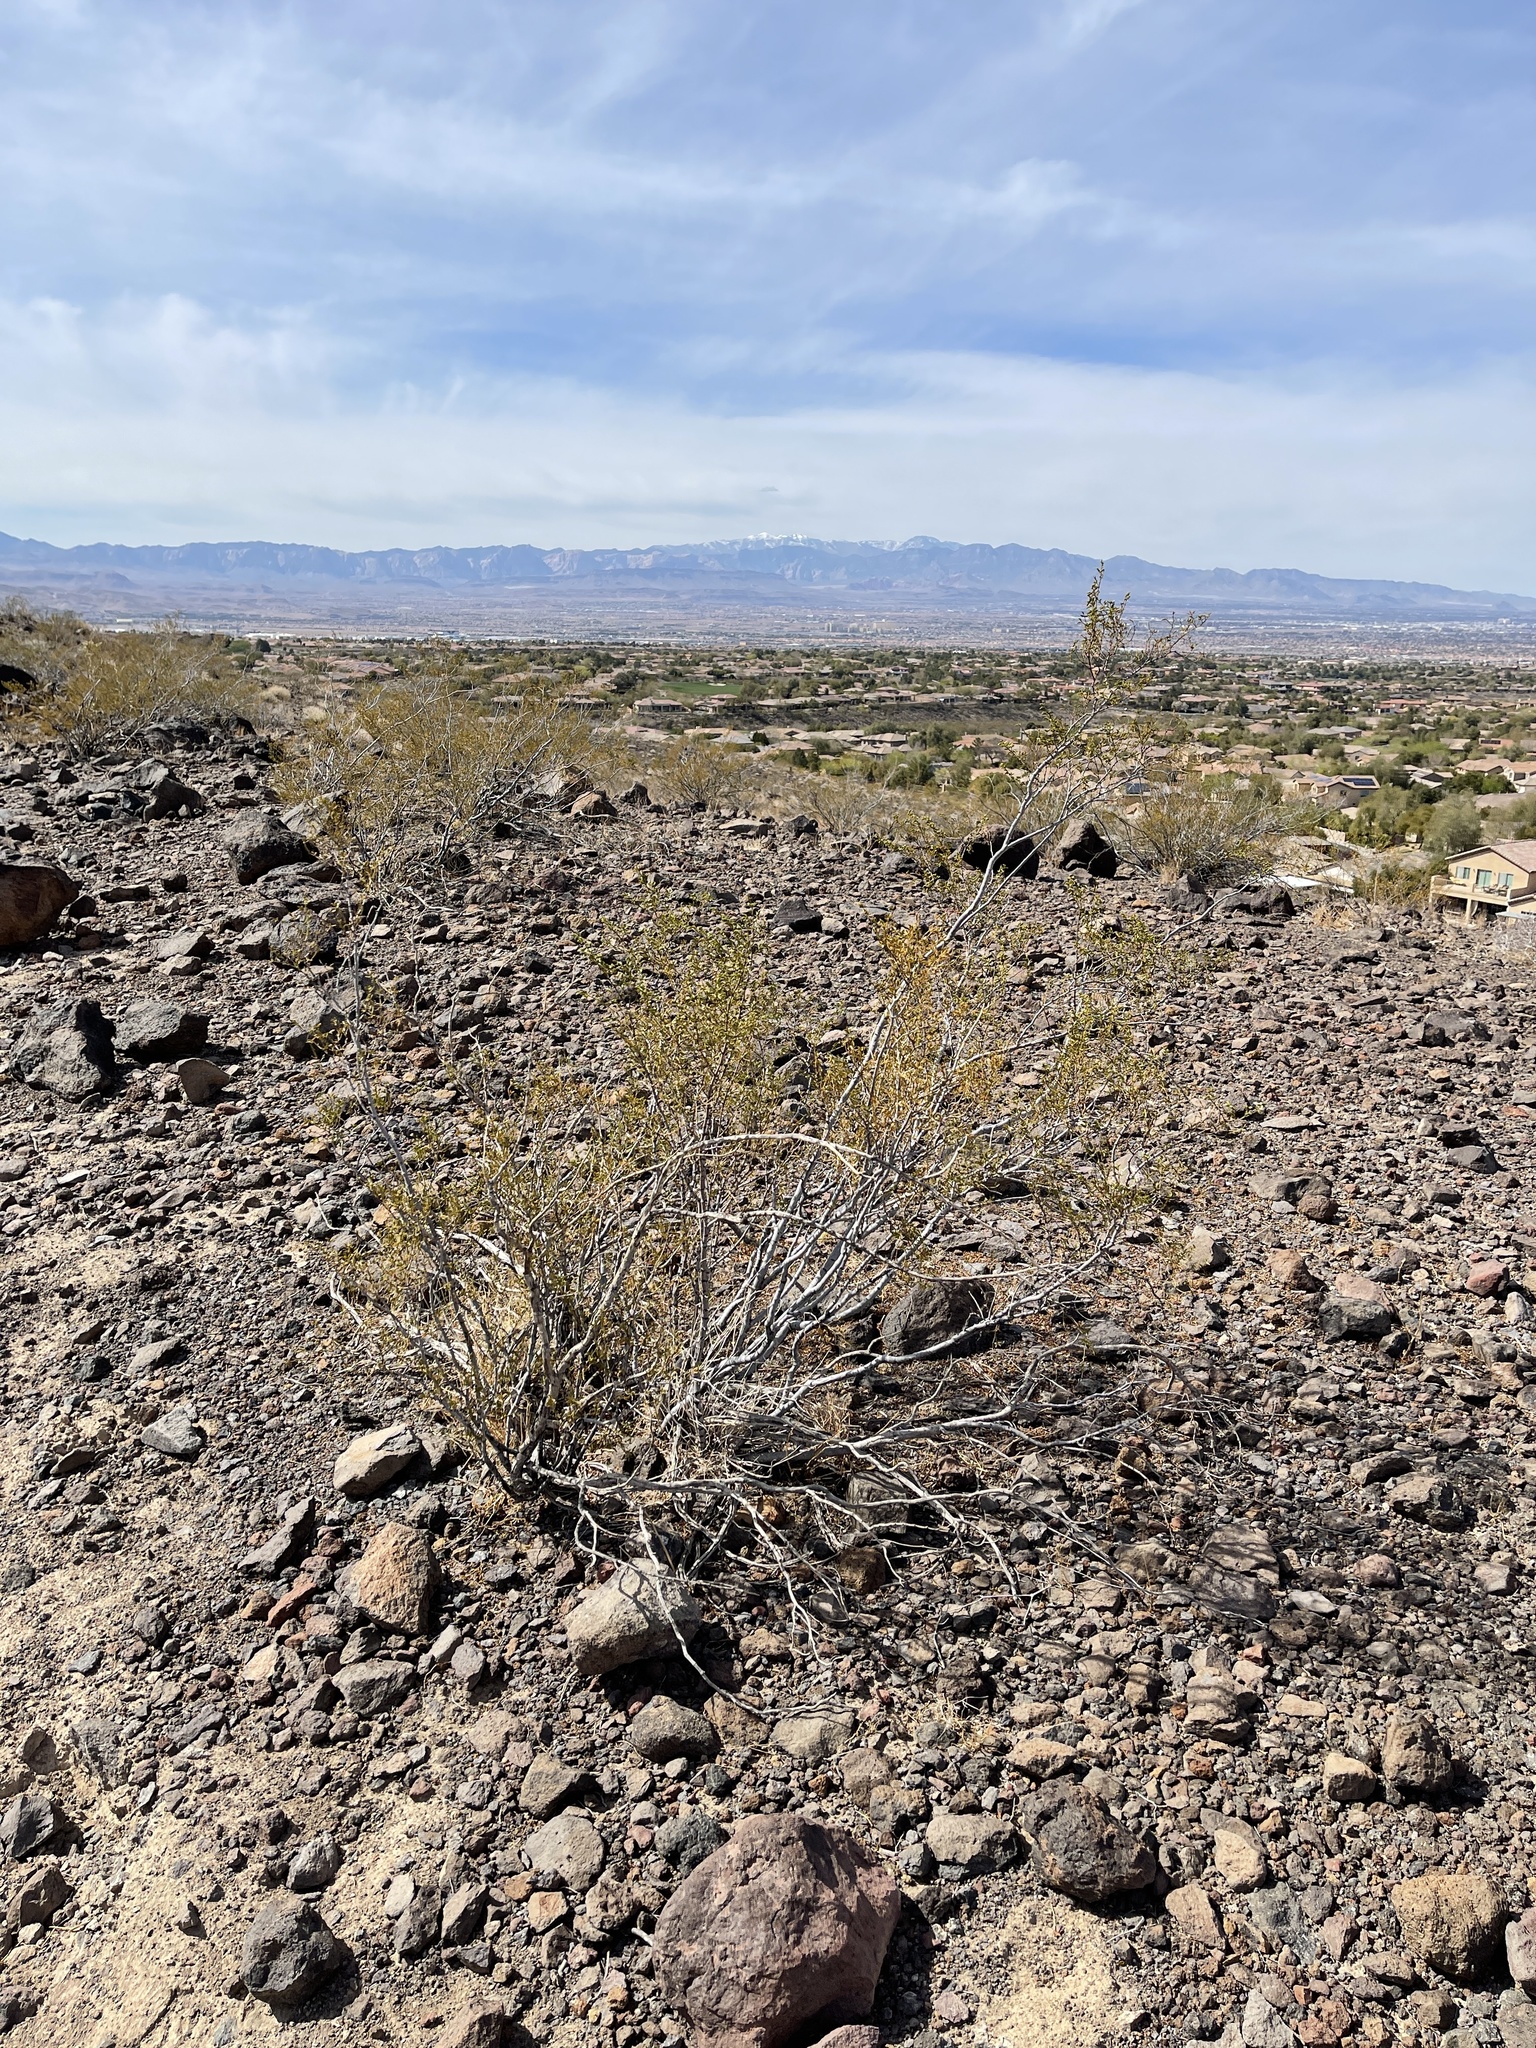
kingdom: Plantae
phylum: Tracheophyta
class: Magnoliopsida
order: Zygophyllales
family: Zygophyllaceae
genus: Larrea
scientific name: Larrea tridentata
